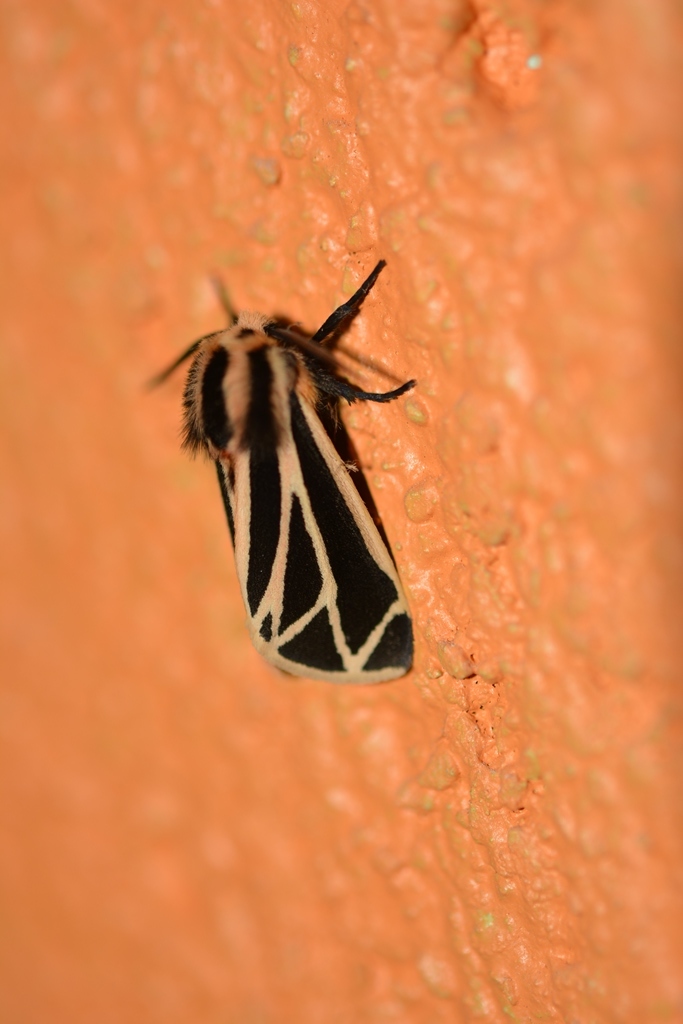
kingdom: Animalia
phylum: Arthropoda
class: Insecta
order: Lepidoptera
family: Erebidae
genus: Apantesis
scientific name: Apantesis phalerata
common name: Harnessed tiger moth
